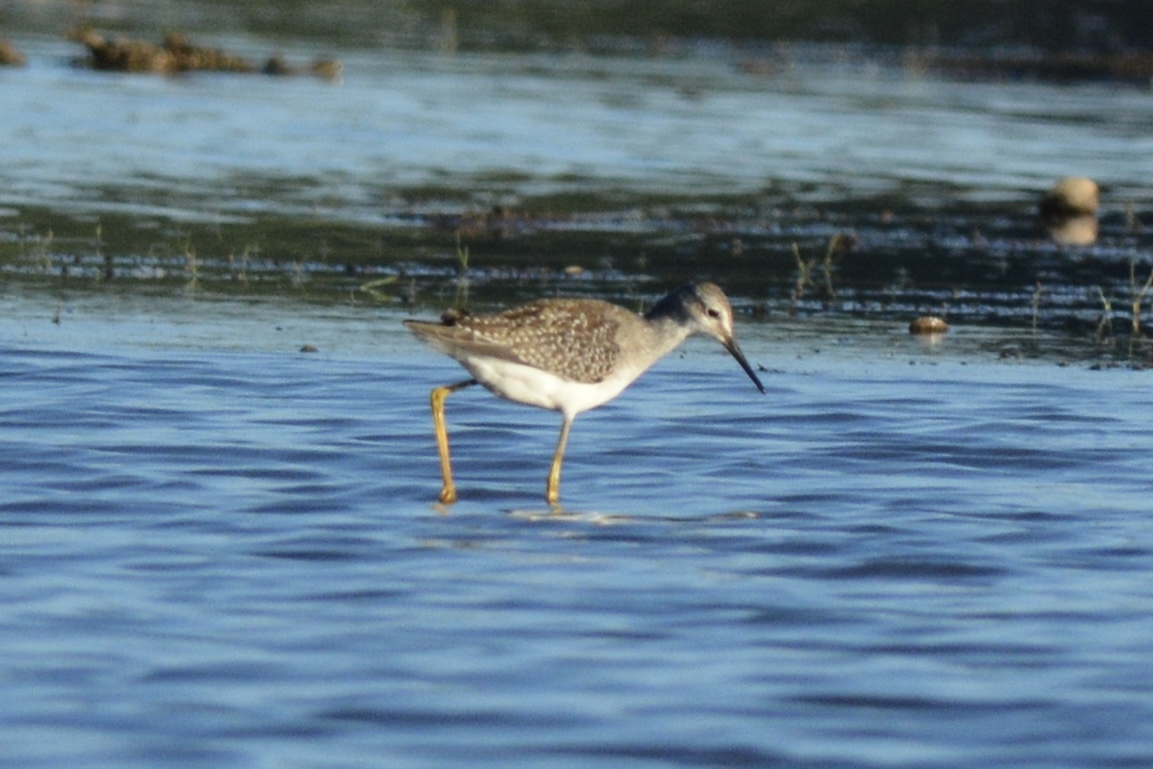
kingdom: Animalia
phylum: Chordata
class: Aves
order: Charadriiformes
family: Scolopacidae
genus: Tringa
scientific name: Tringa flavipes
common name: Lesser yellowlegs
